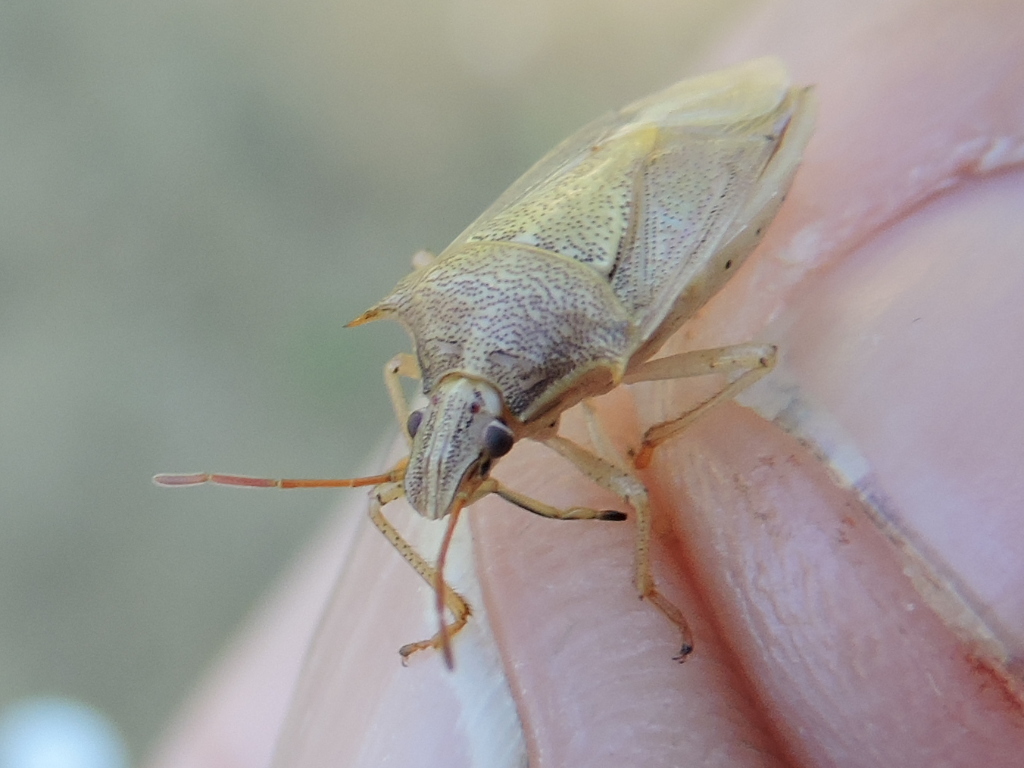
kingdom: Animalia
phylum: Arthropoda
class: Insecta
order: Hemiptera
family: Pentatomidae
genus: Oebalus
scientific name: Oebalus pugnax
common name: Rice stink bug
